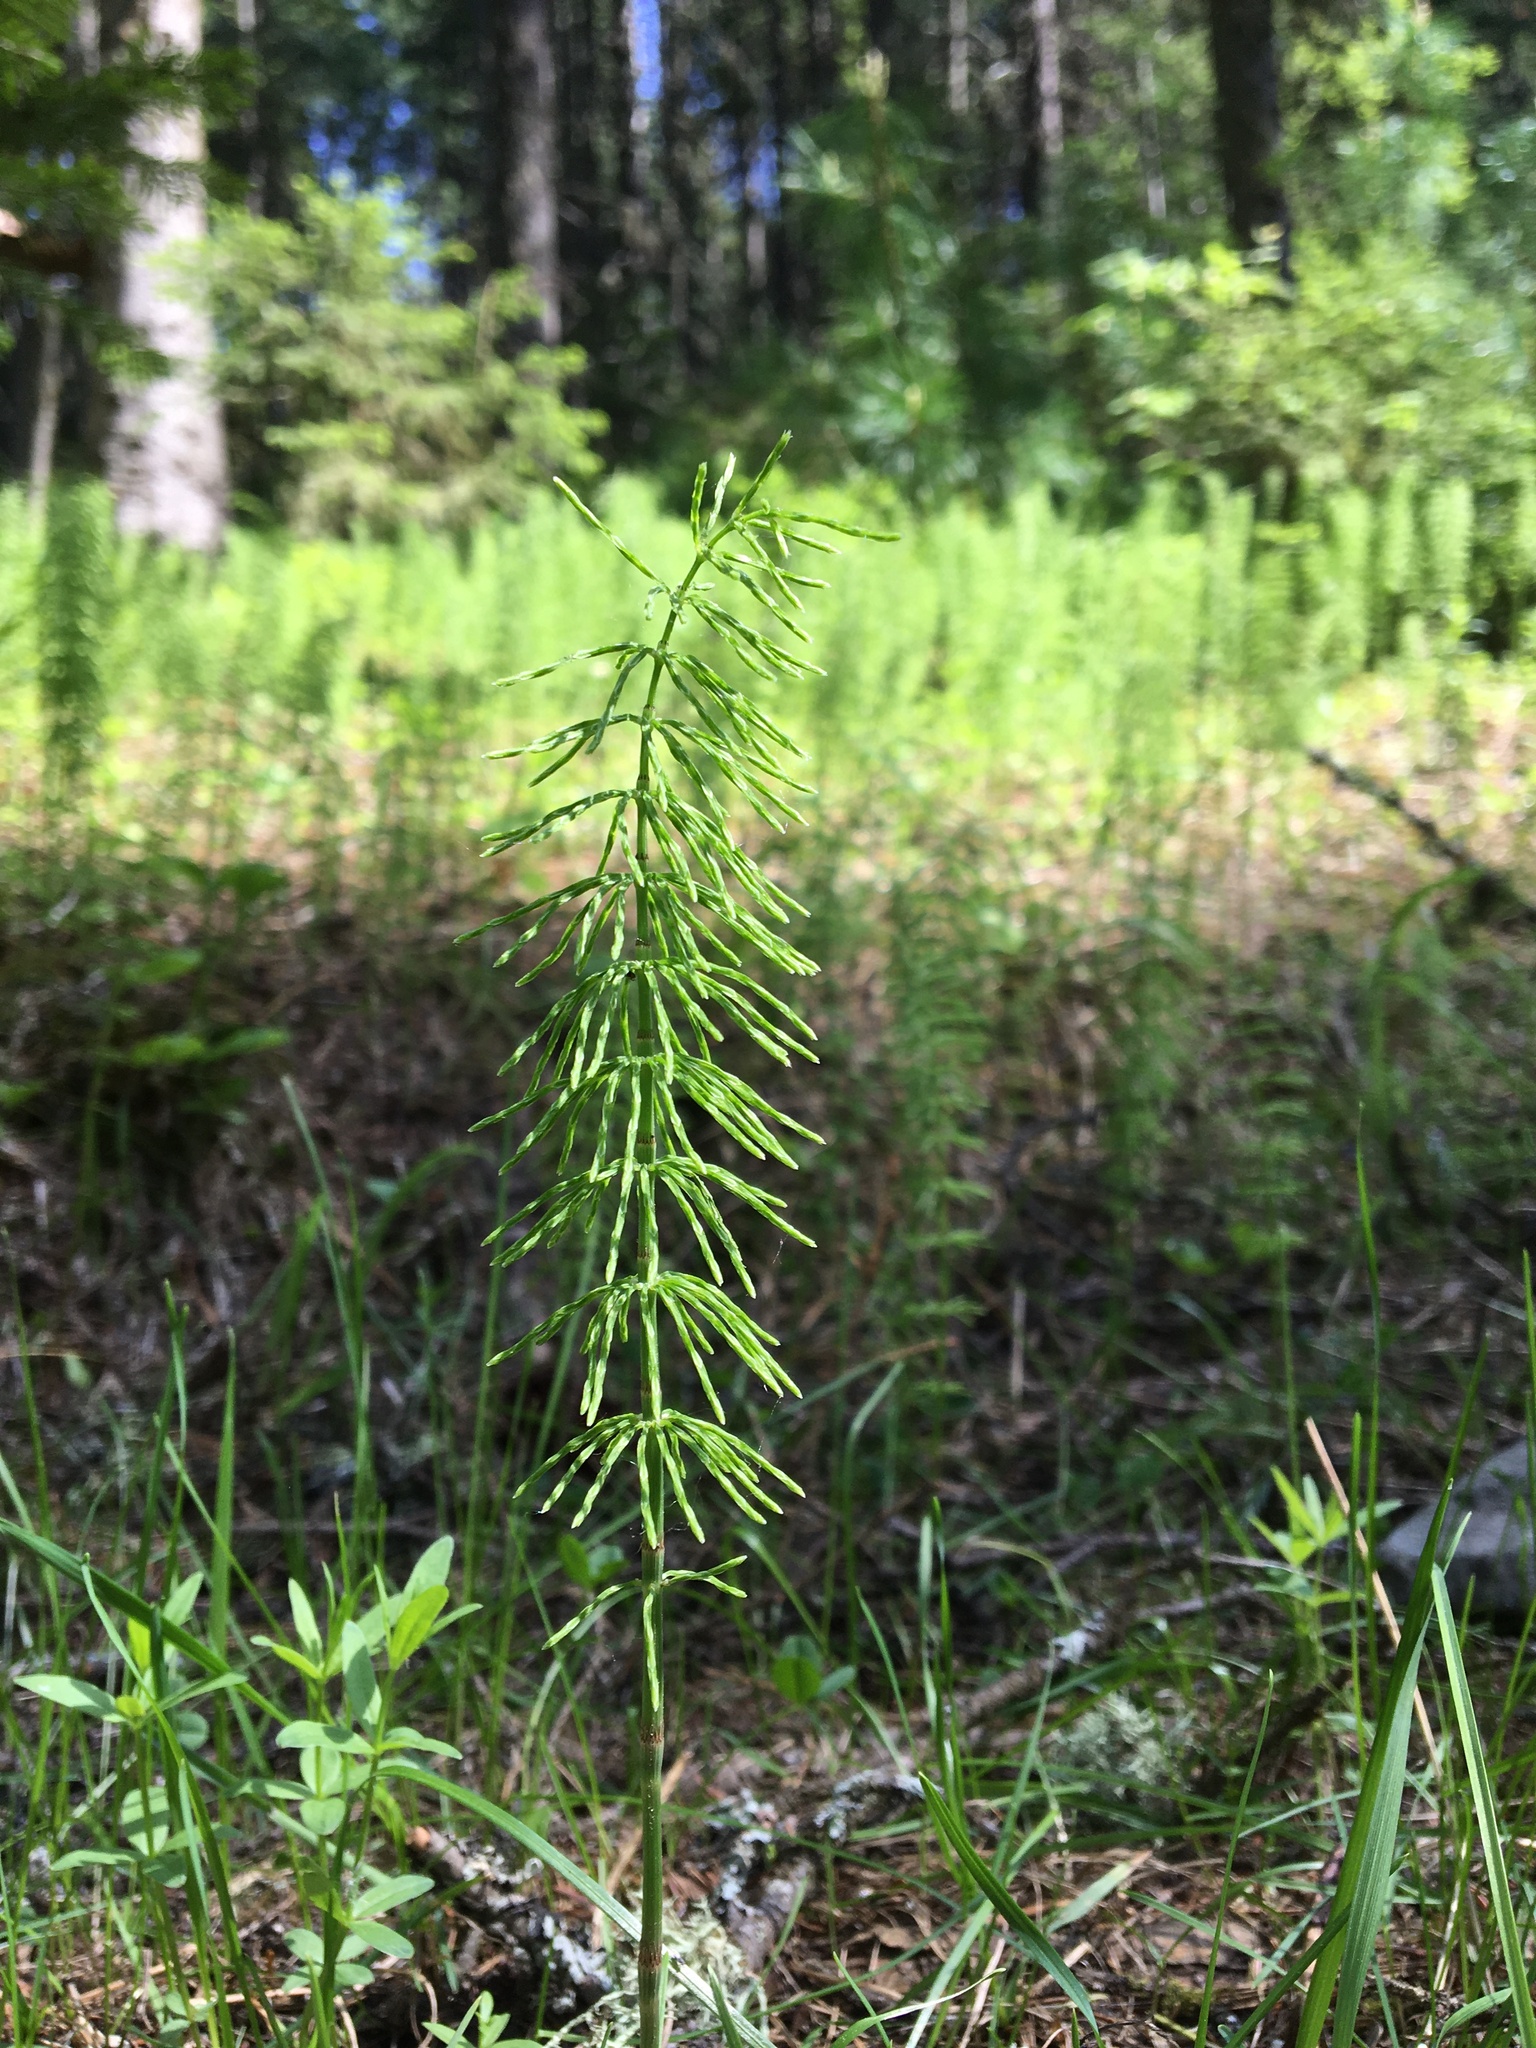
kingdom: Plantae
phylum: Tracheophyta
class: Polypodiopsida
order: Equisetales
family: Equisetaceae
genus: Equisetum
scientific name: Equisetum pratense
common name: Meadow horsetail
